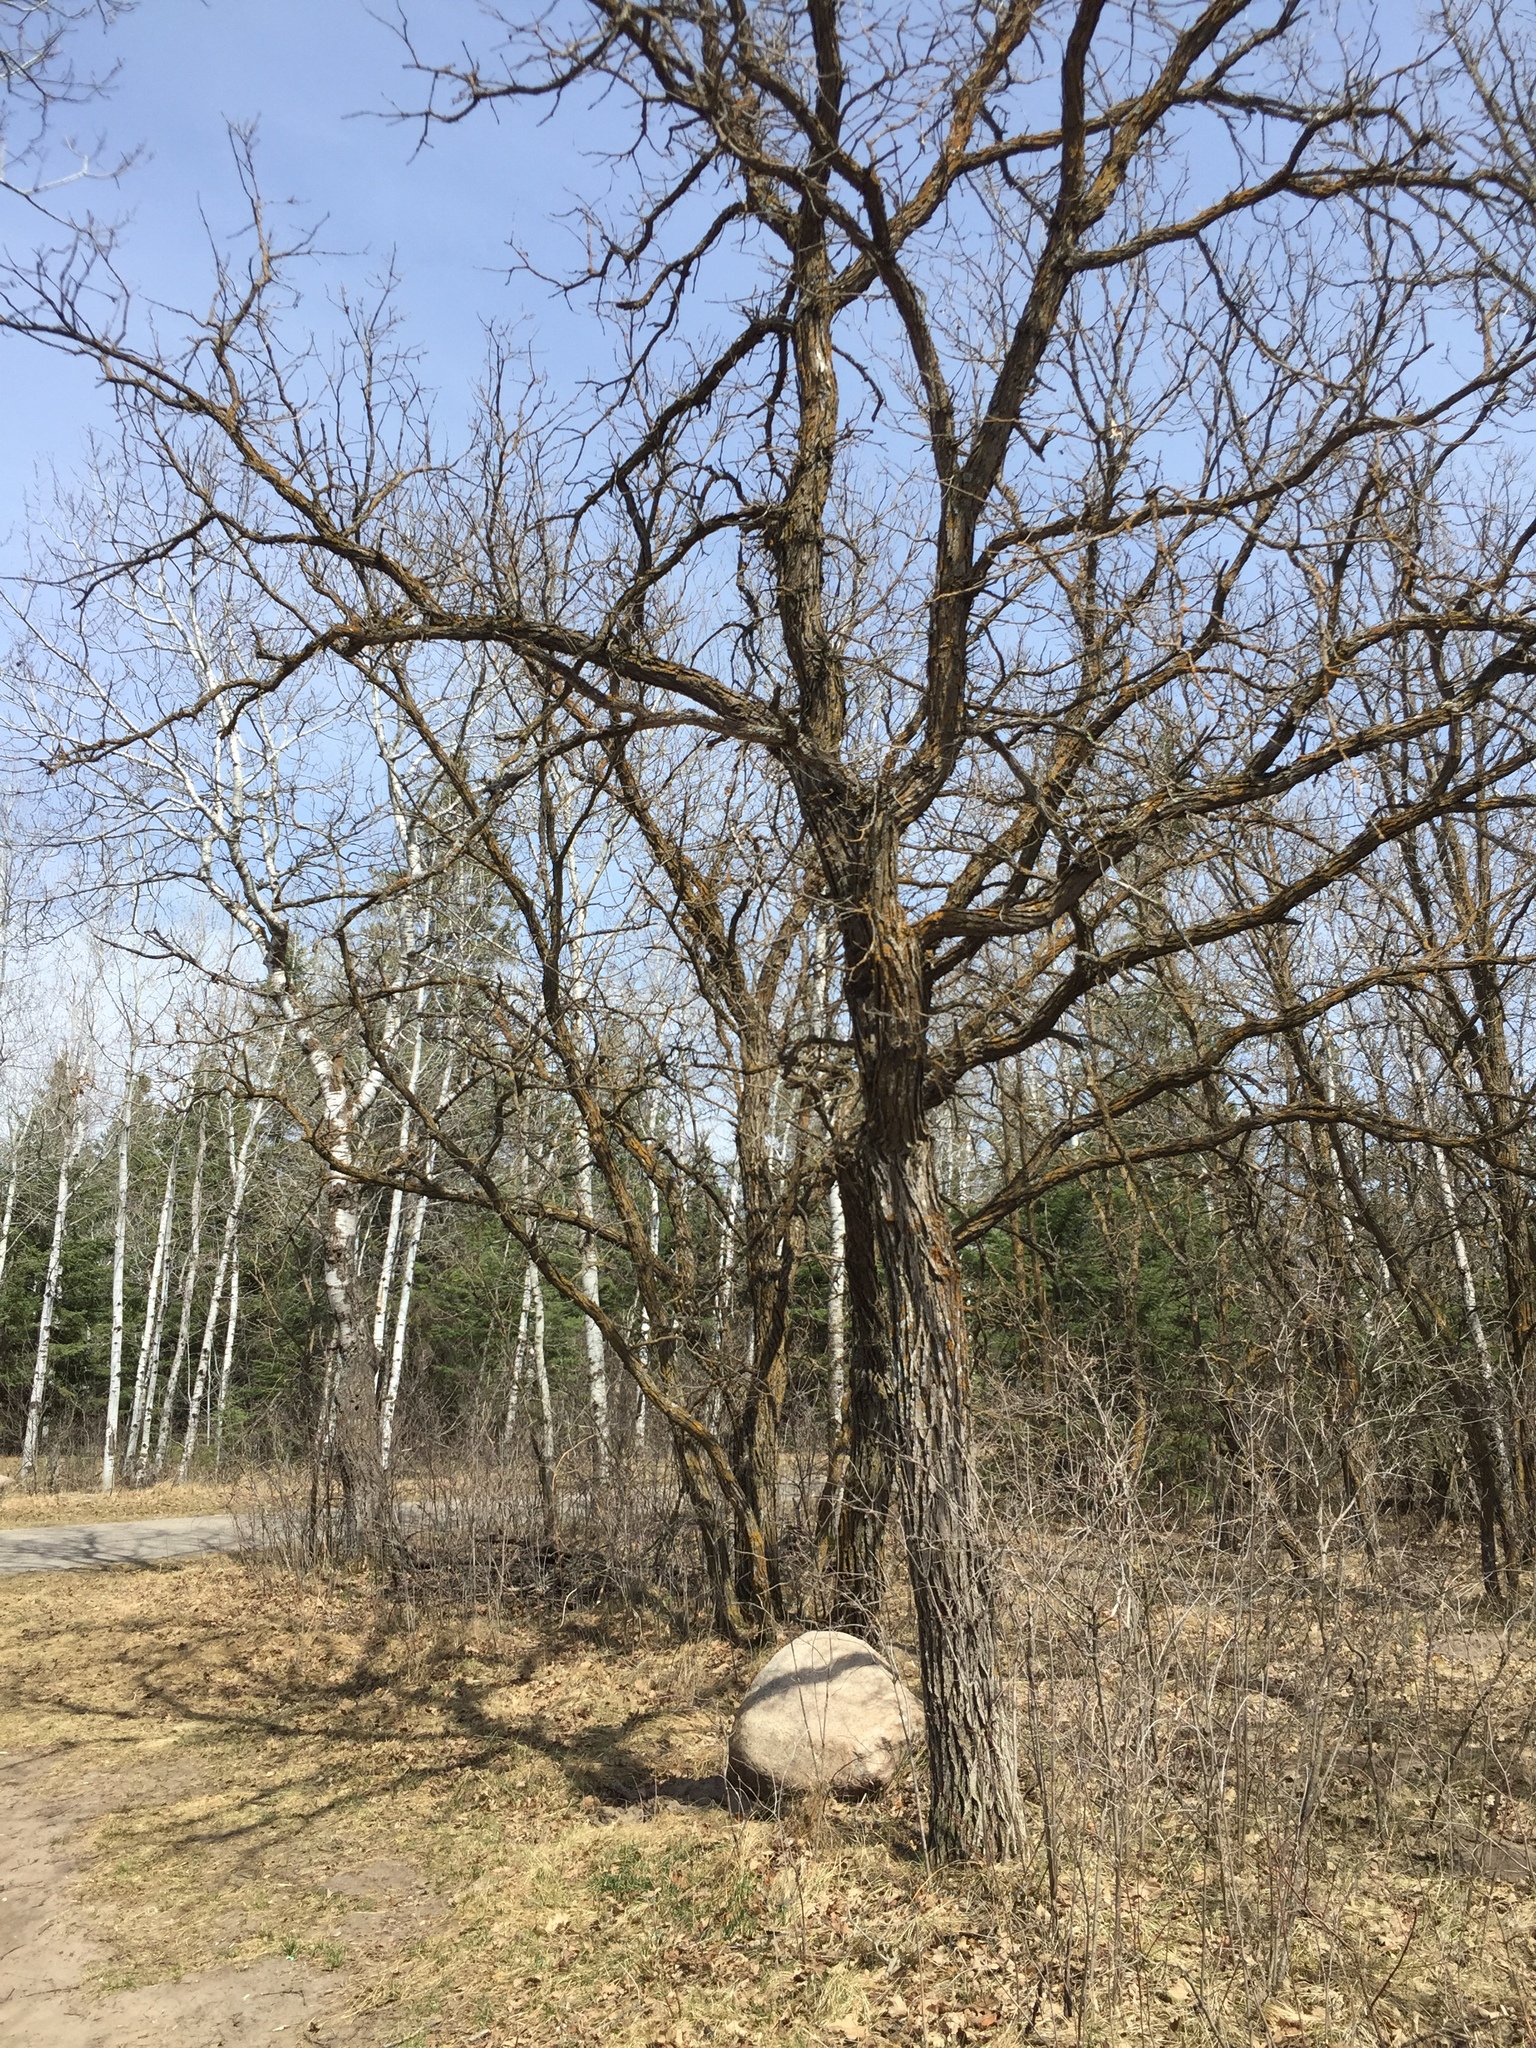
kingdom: Plantae
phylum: Tracheophyta
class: Magnoliopsida
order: Fagales
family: Fagaceae
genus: Quercus
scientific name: Quercus macrocarpa
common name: Bur oak
